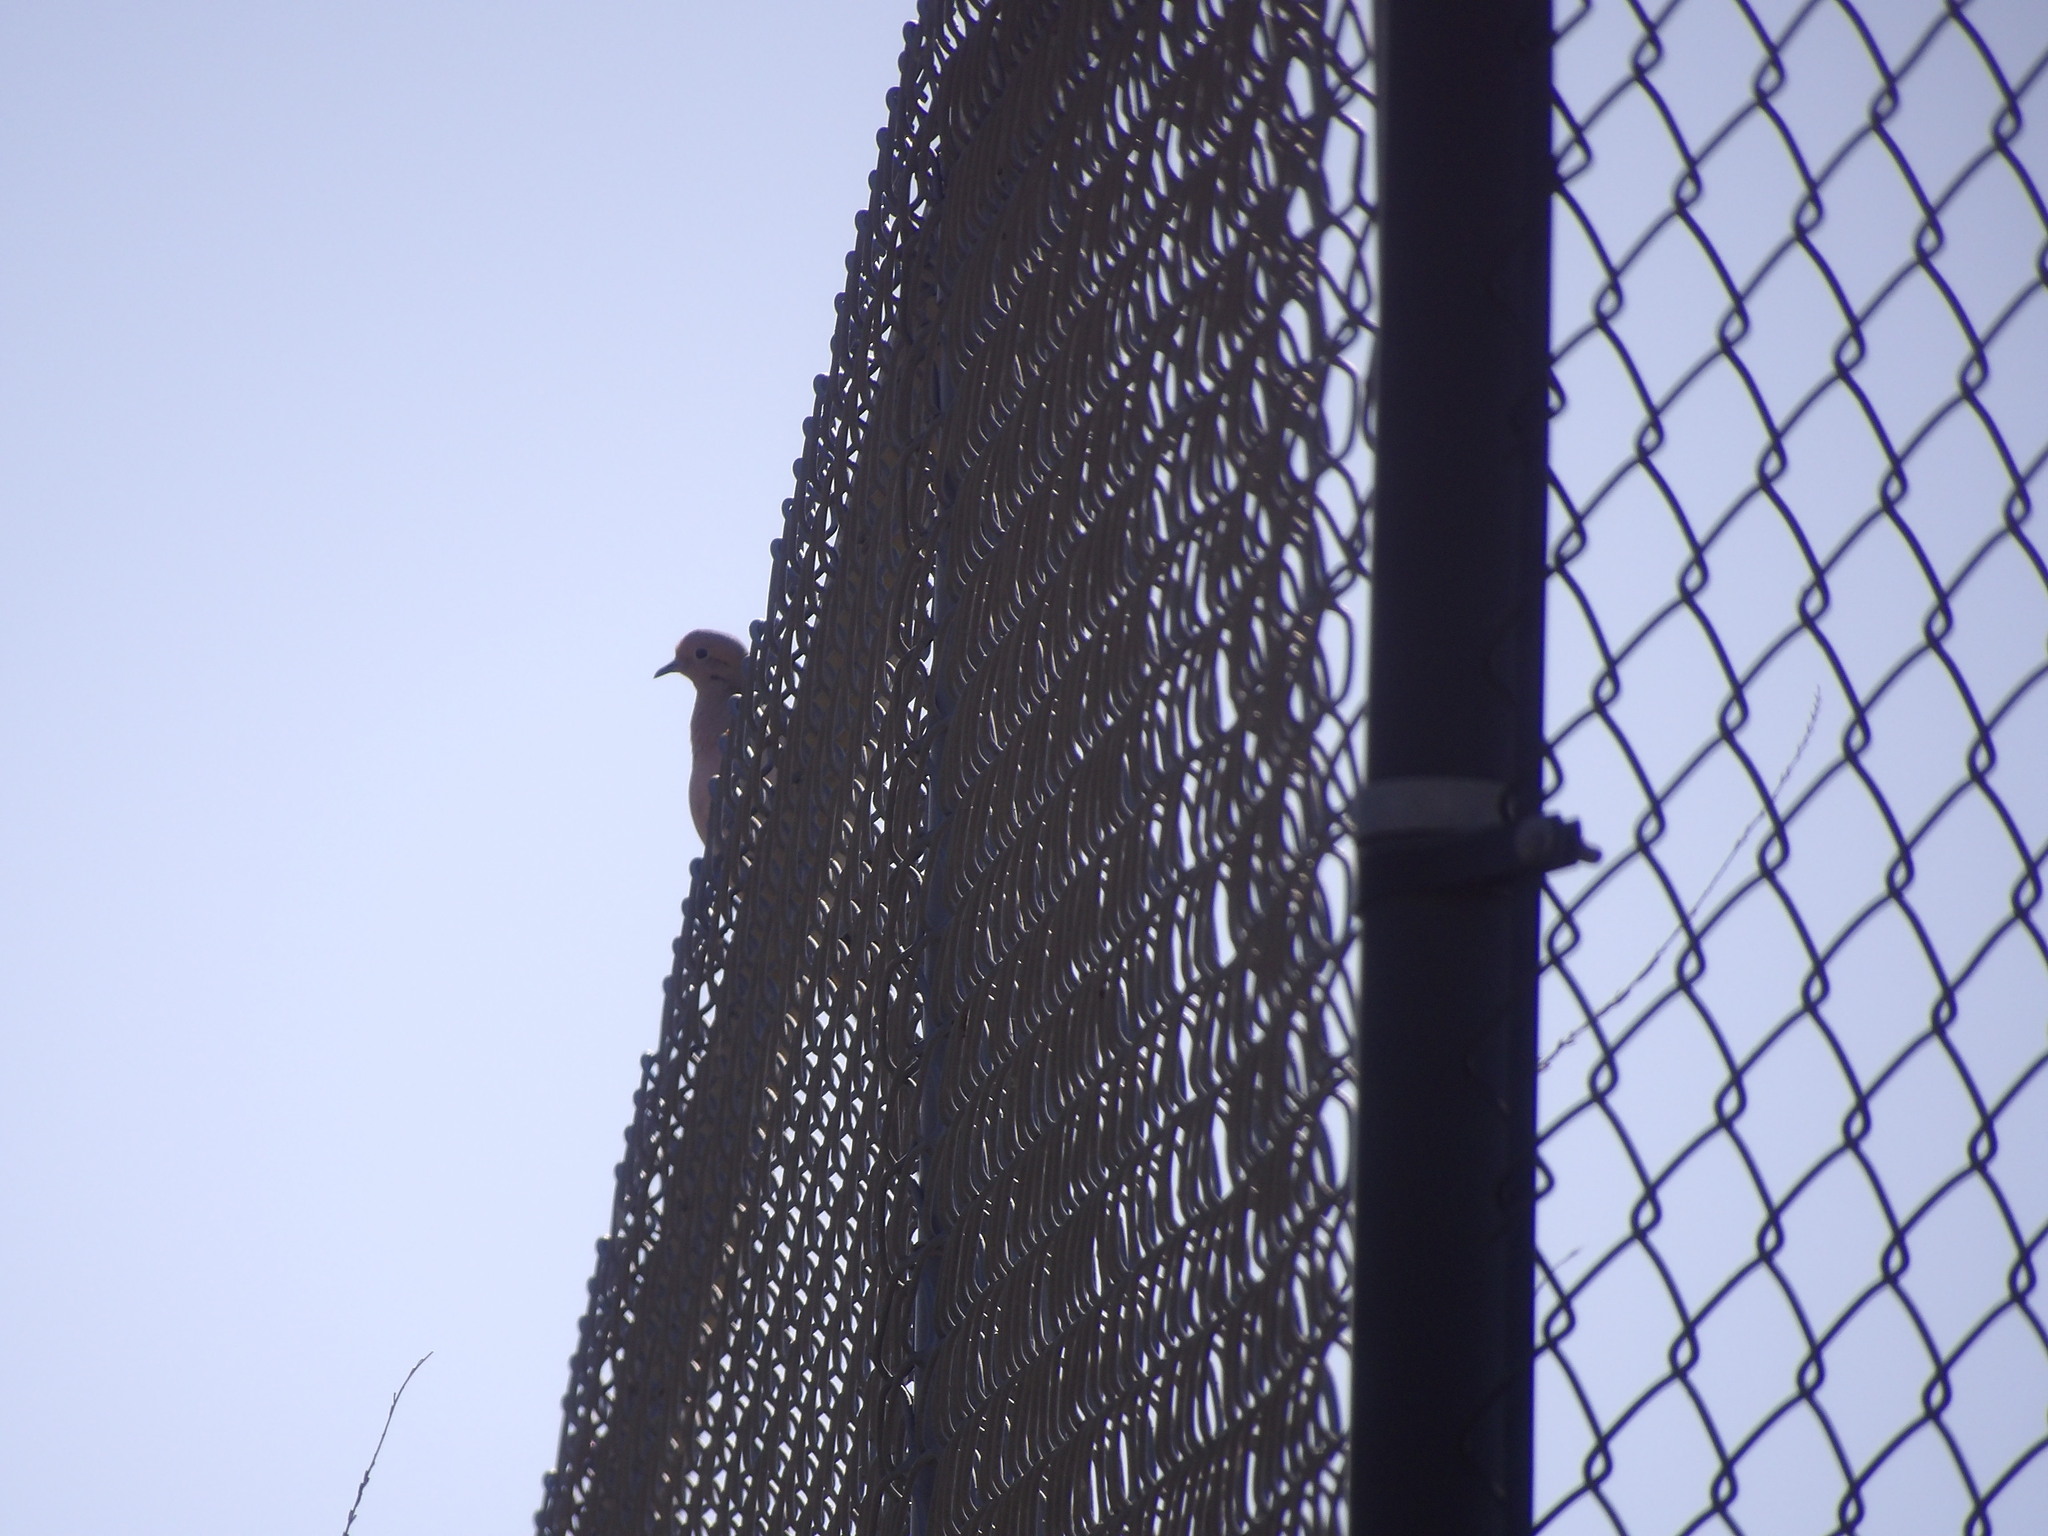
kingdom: Animalia
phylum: Chordata
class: Aves
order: Columbiformes
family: Columbidae
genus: Zenaida
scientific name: Zenaida macroura
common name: Mourning dove
